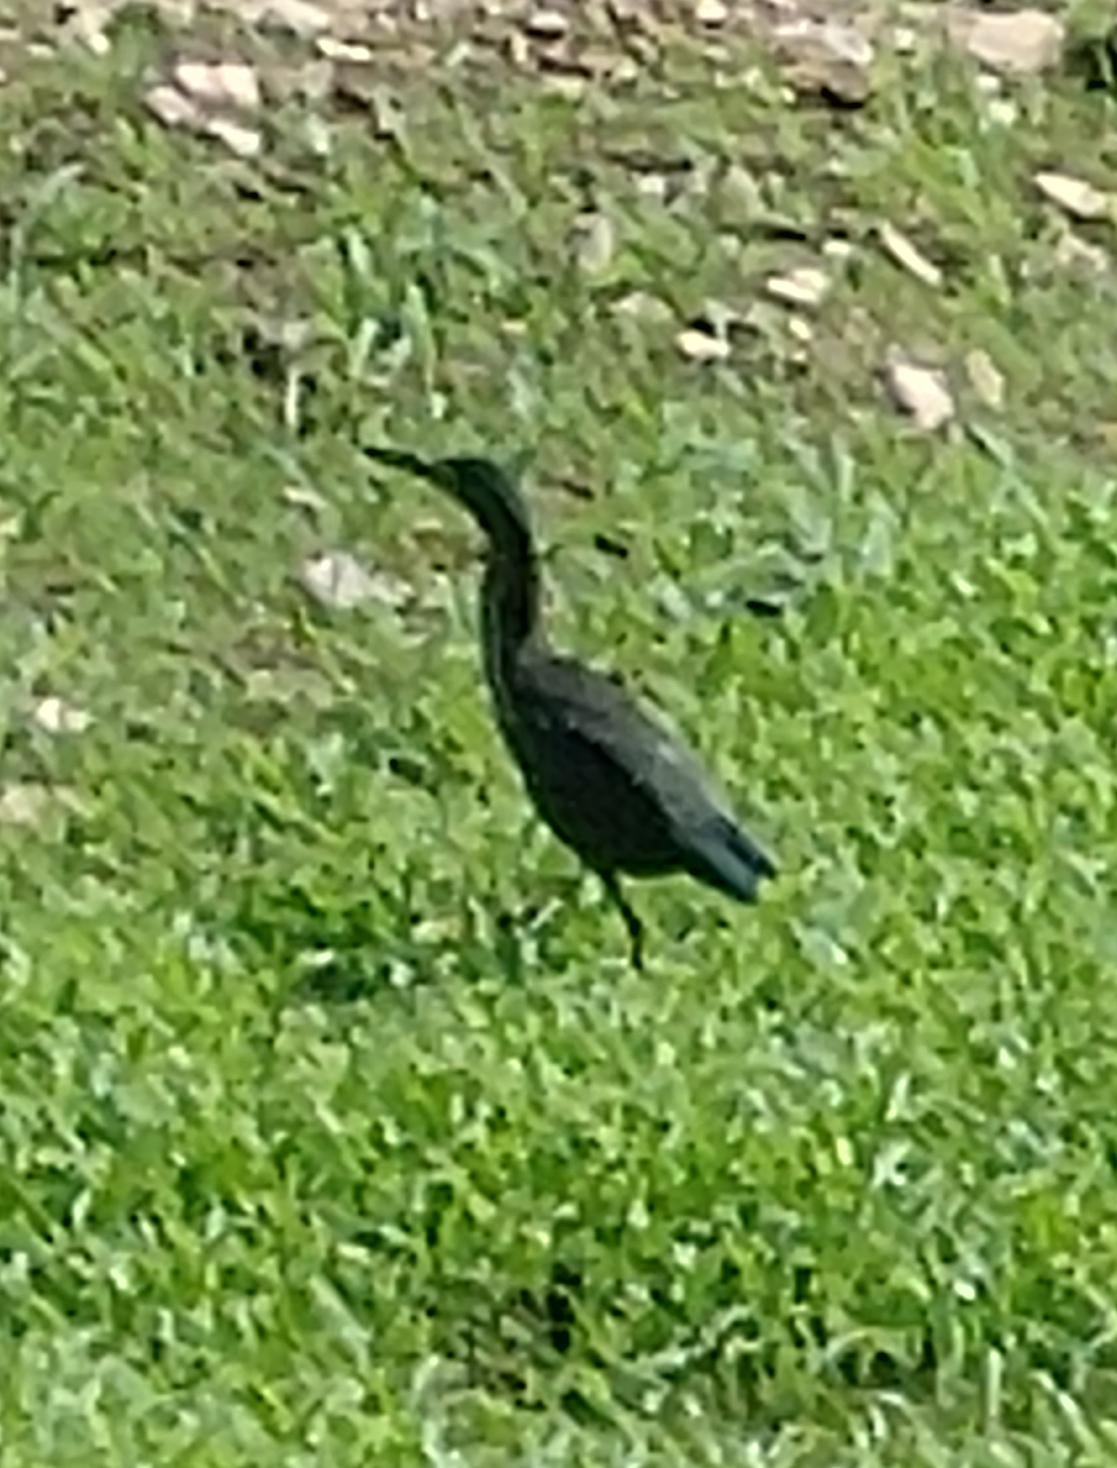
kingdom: Animalia
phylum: Chordata
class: Aves
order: Pelecaniformes
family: Ardeidae
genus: Butorides
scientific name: Butorides virescens
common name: Green heron
